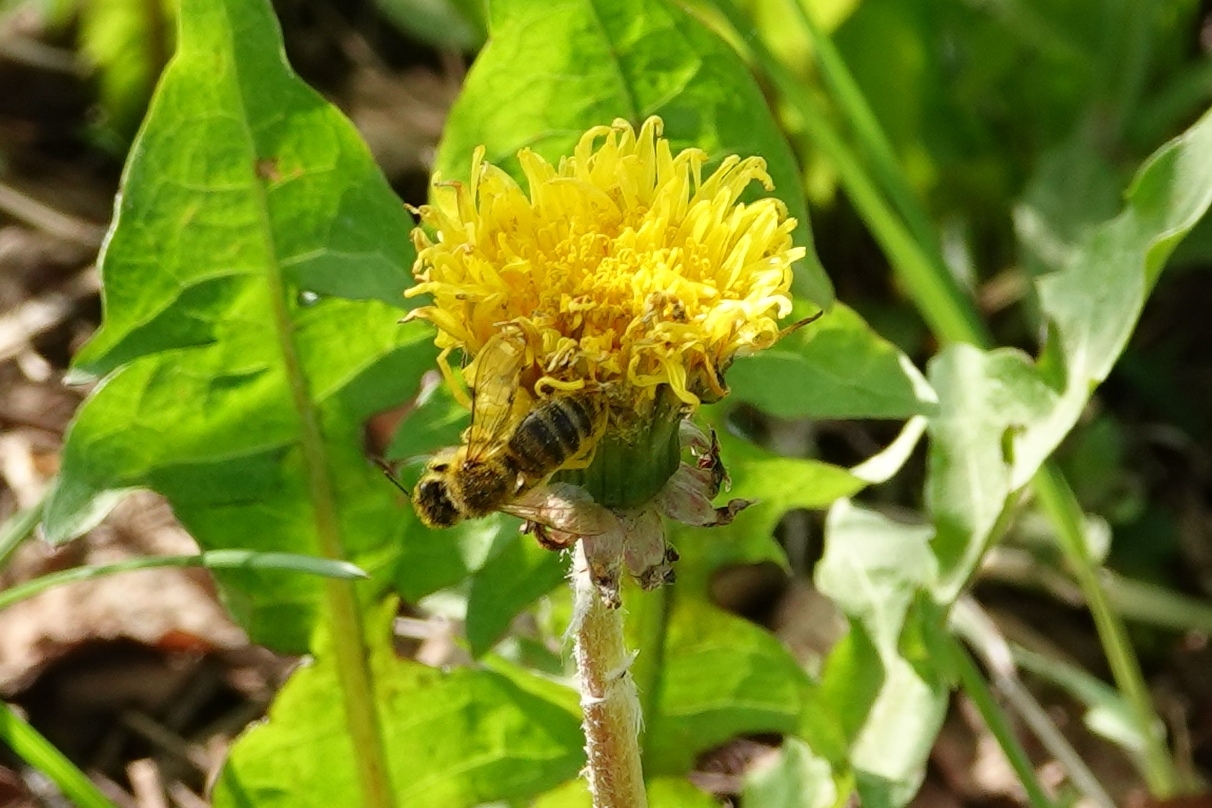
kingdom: Animalia
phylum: Arthropoda
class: Insecta
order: Hymenoptera
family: Apidae
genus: Apis
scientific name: Apis mellifera
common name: Honey bee
